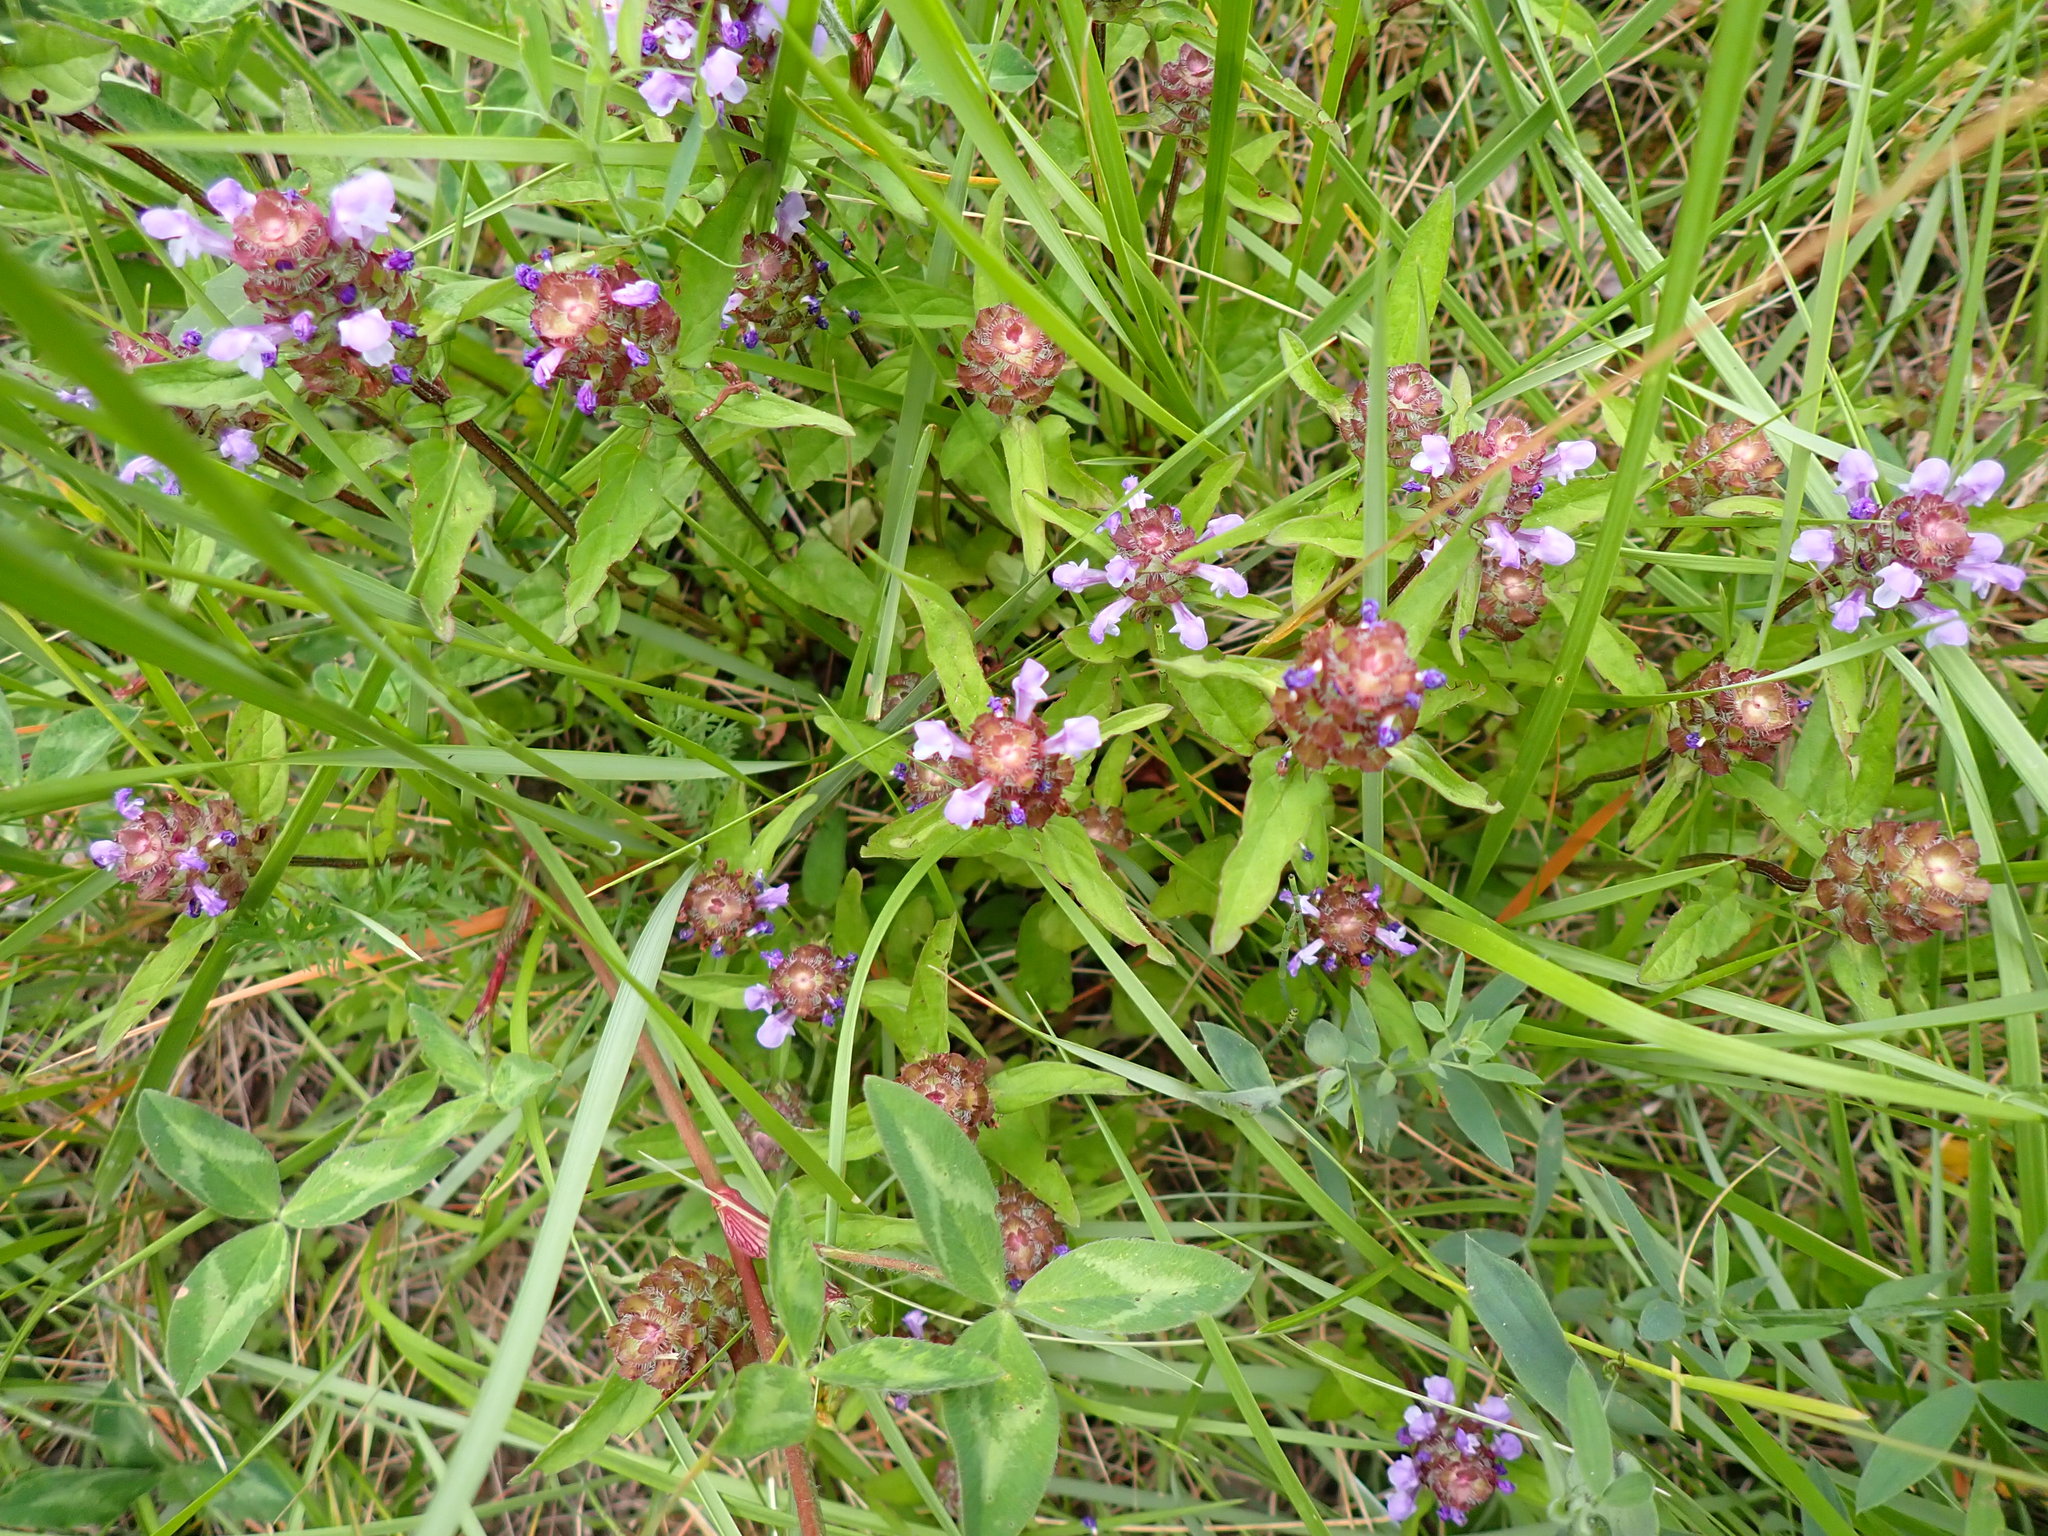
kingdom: Plantae
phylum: Tracheophyta
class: Magnoliopsida
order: Lamiales
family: Lamiaceae
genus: Prunella
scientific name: Prunella vulgaris
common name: Heal-all
